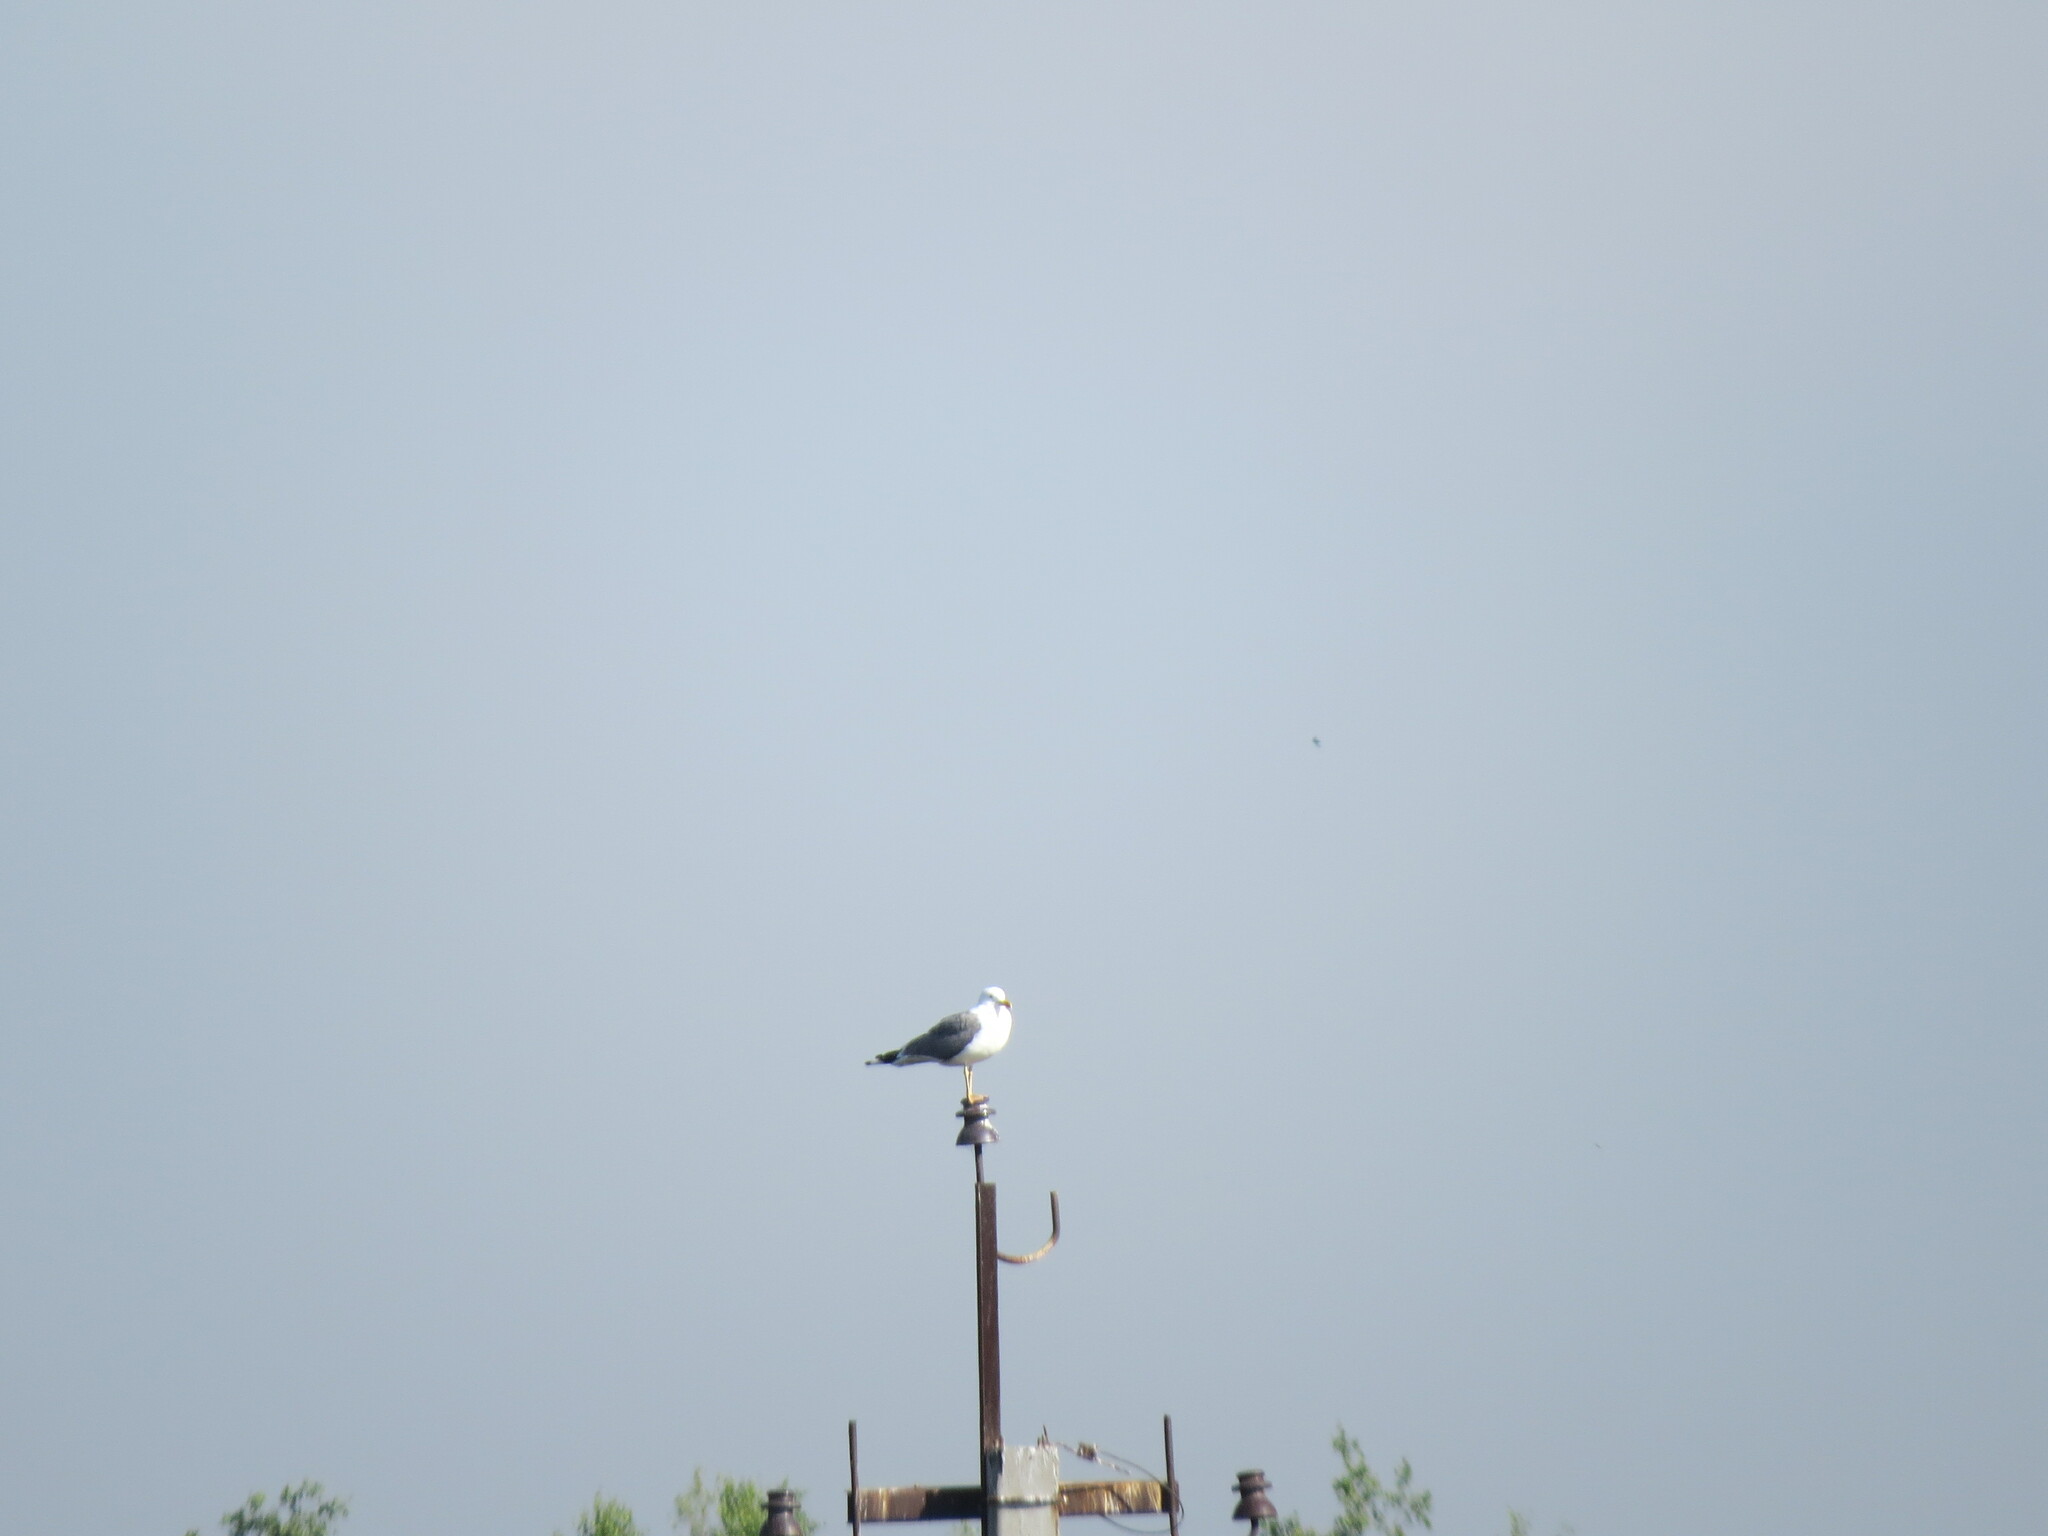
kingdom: Animalia
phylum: Chordata
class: Aves
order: Charadriiformes
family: Laridae
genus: Larus
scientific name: Larus fuscus
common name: Lesser black-backed gull
